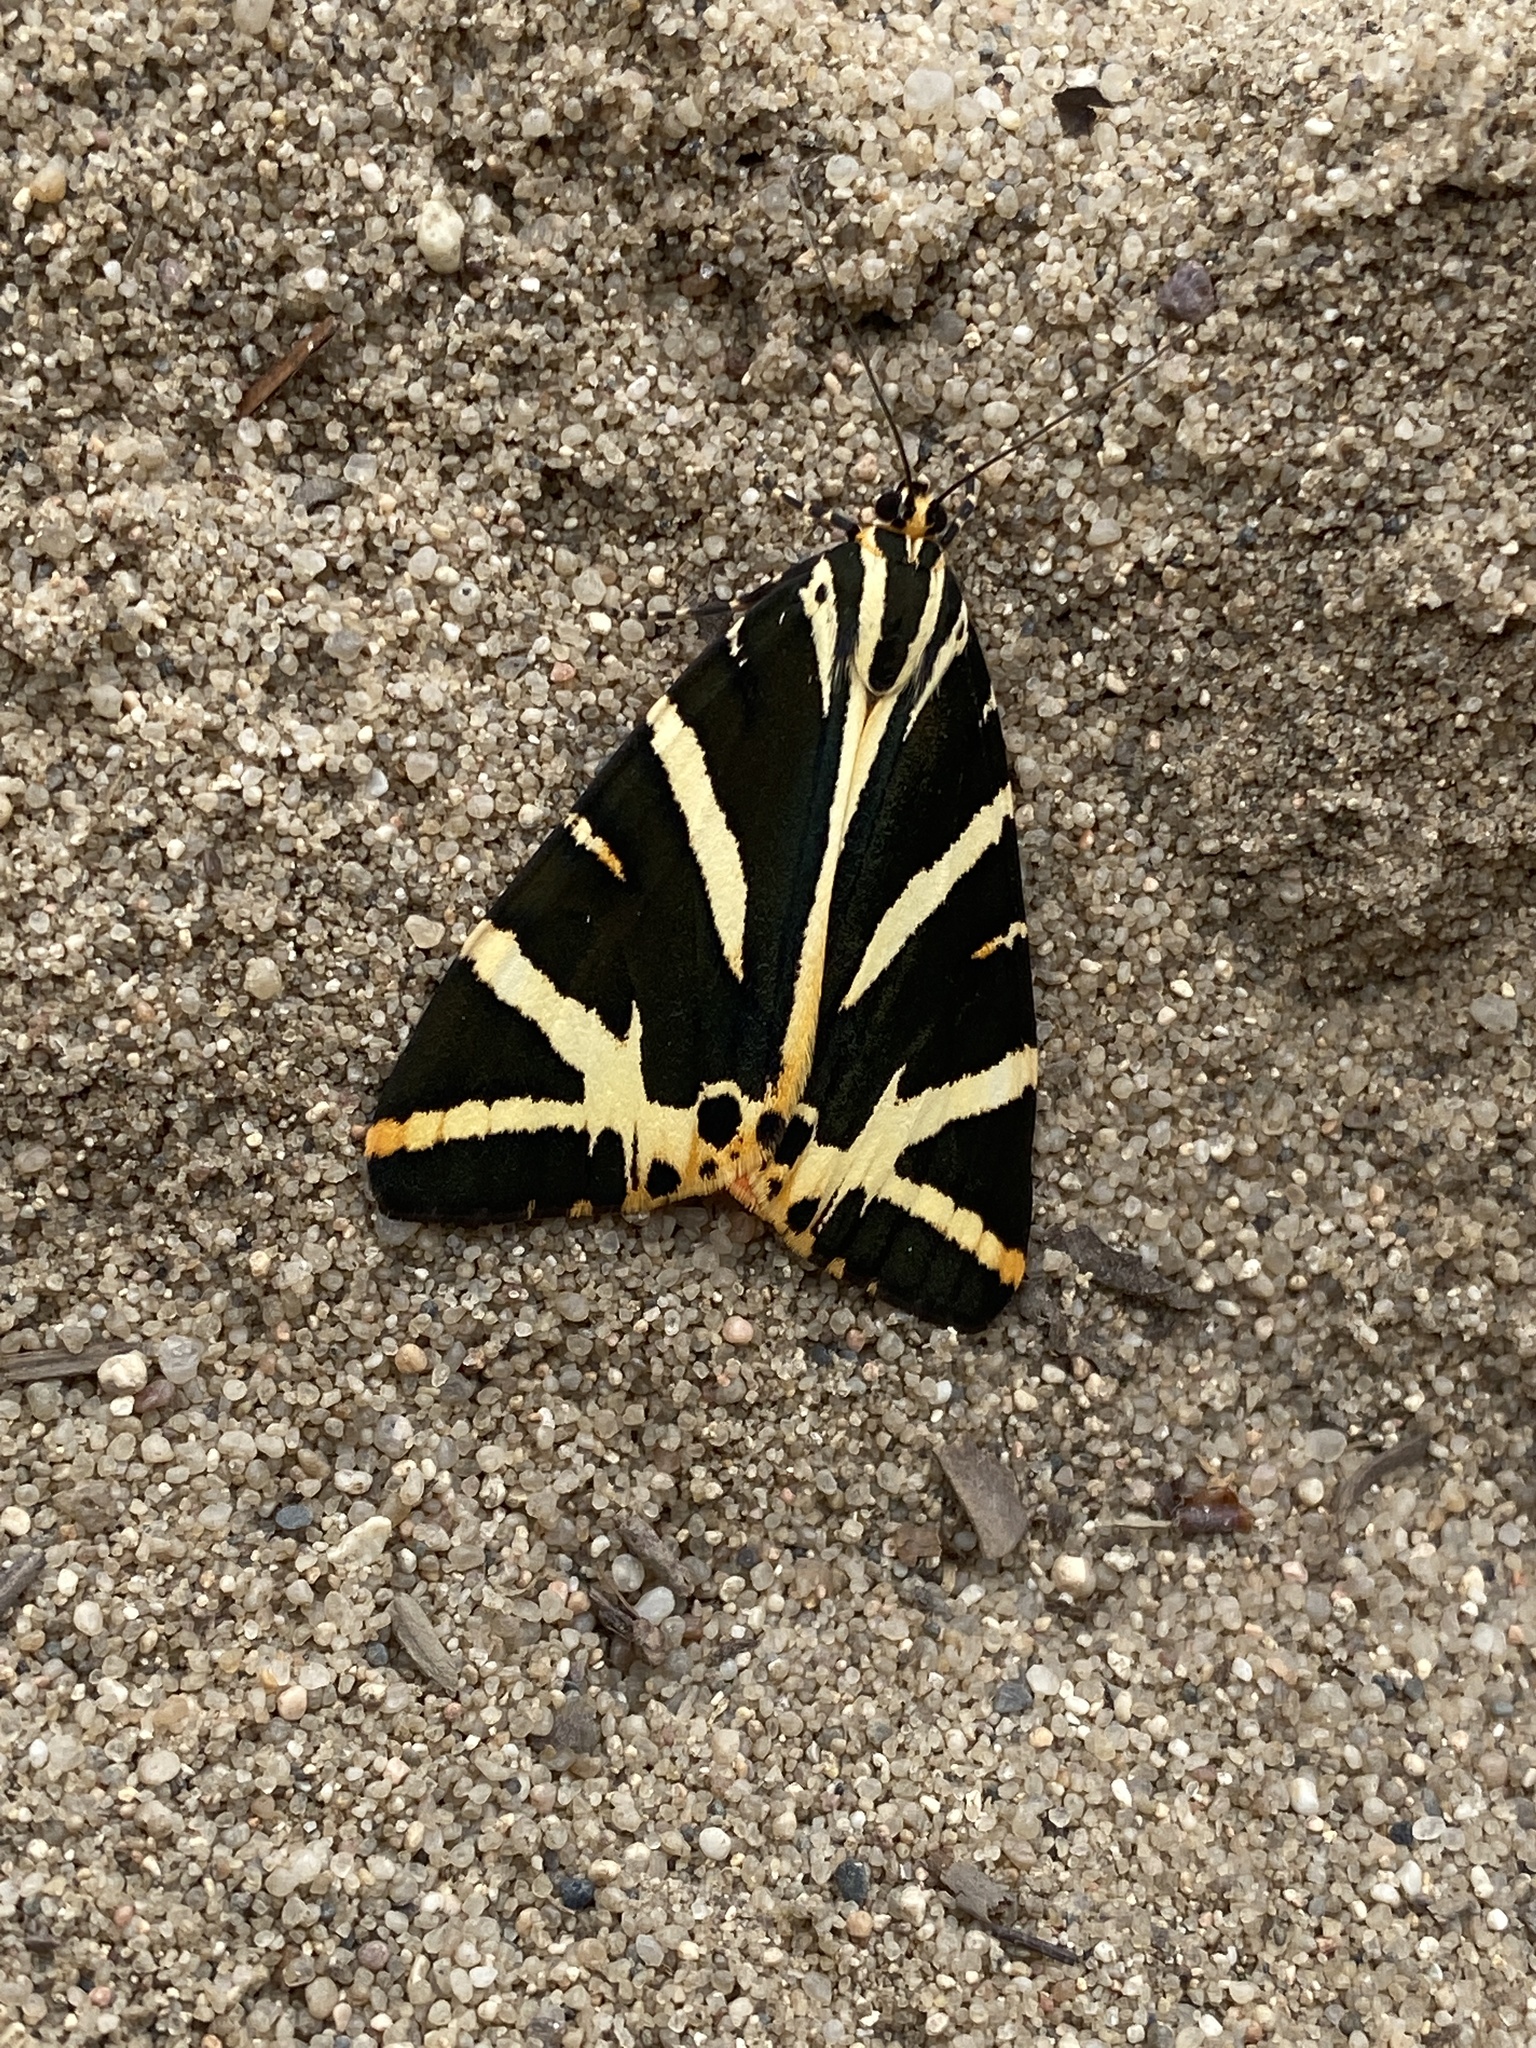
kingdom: Animalia
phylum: Arthropoda
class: Insecta
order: Lepidoptera
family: Erebidae
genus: Euplagia
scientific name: Euplagia quadripunctaria
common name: Jersey tiger
